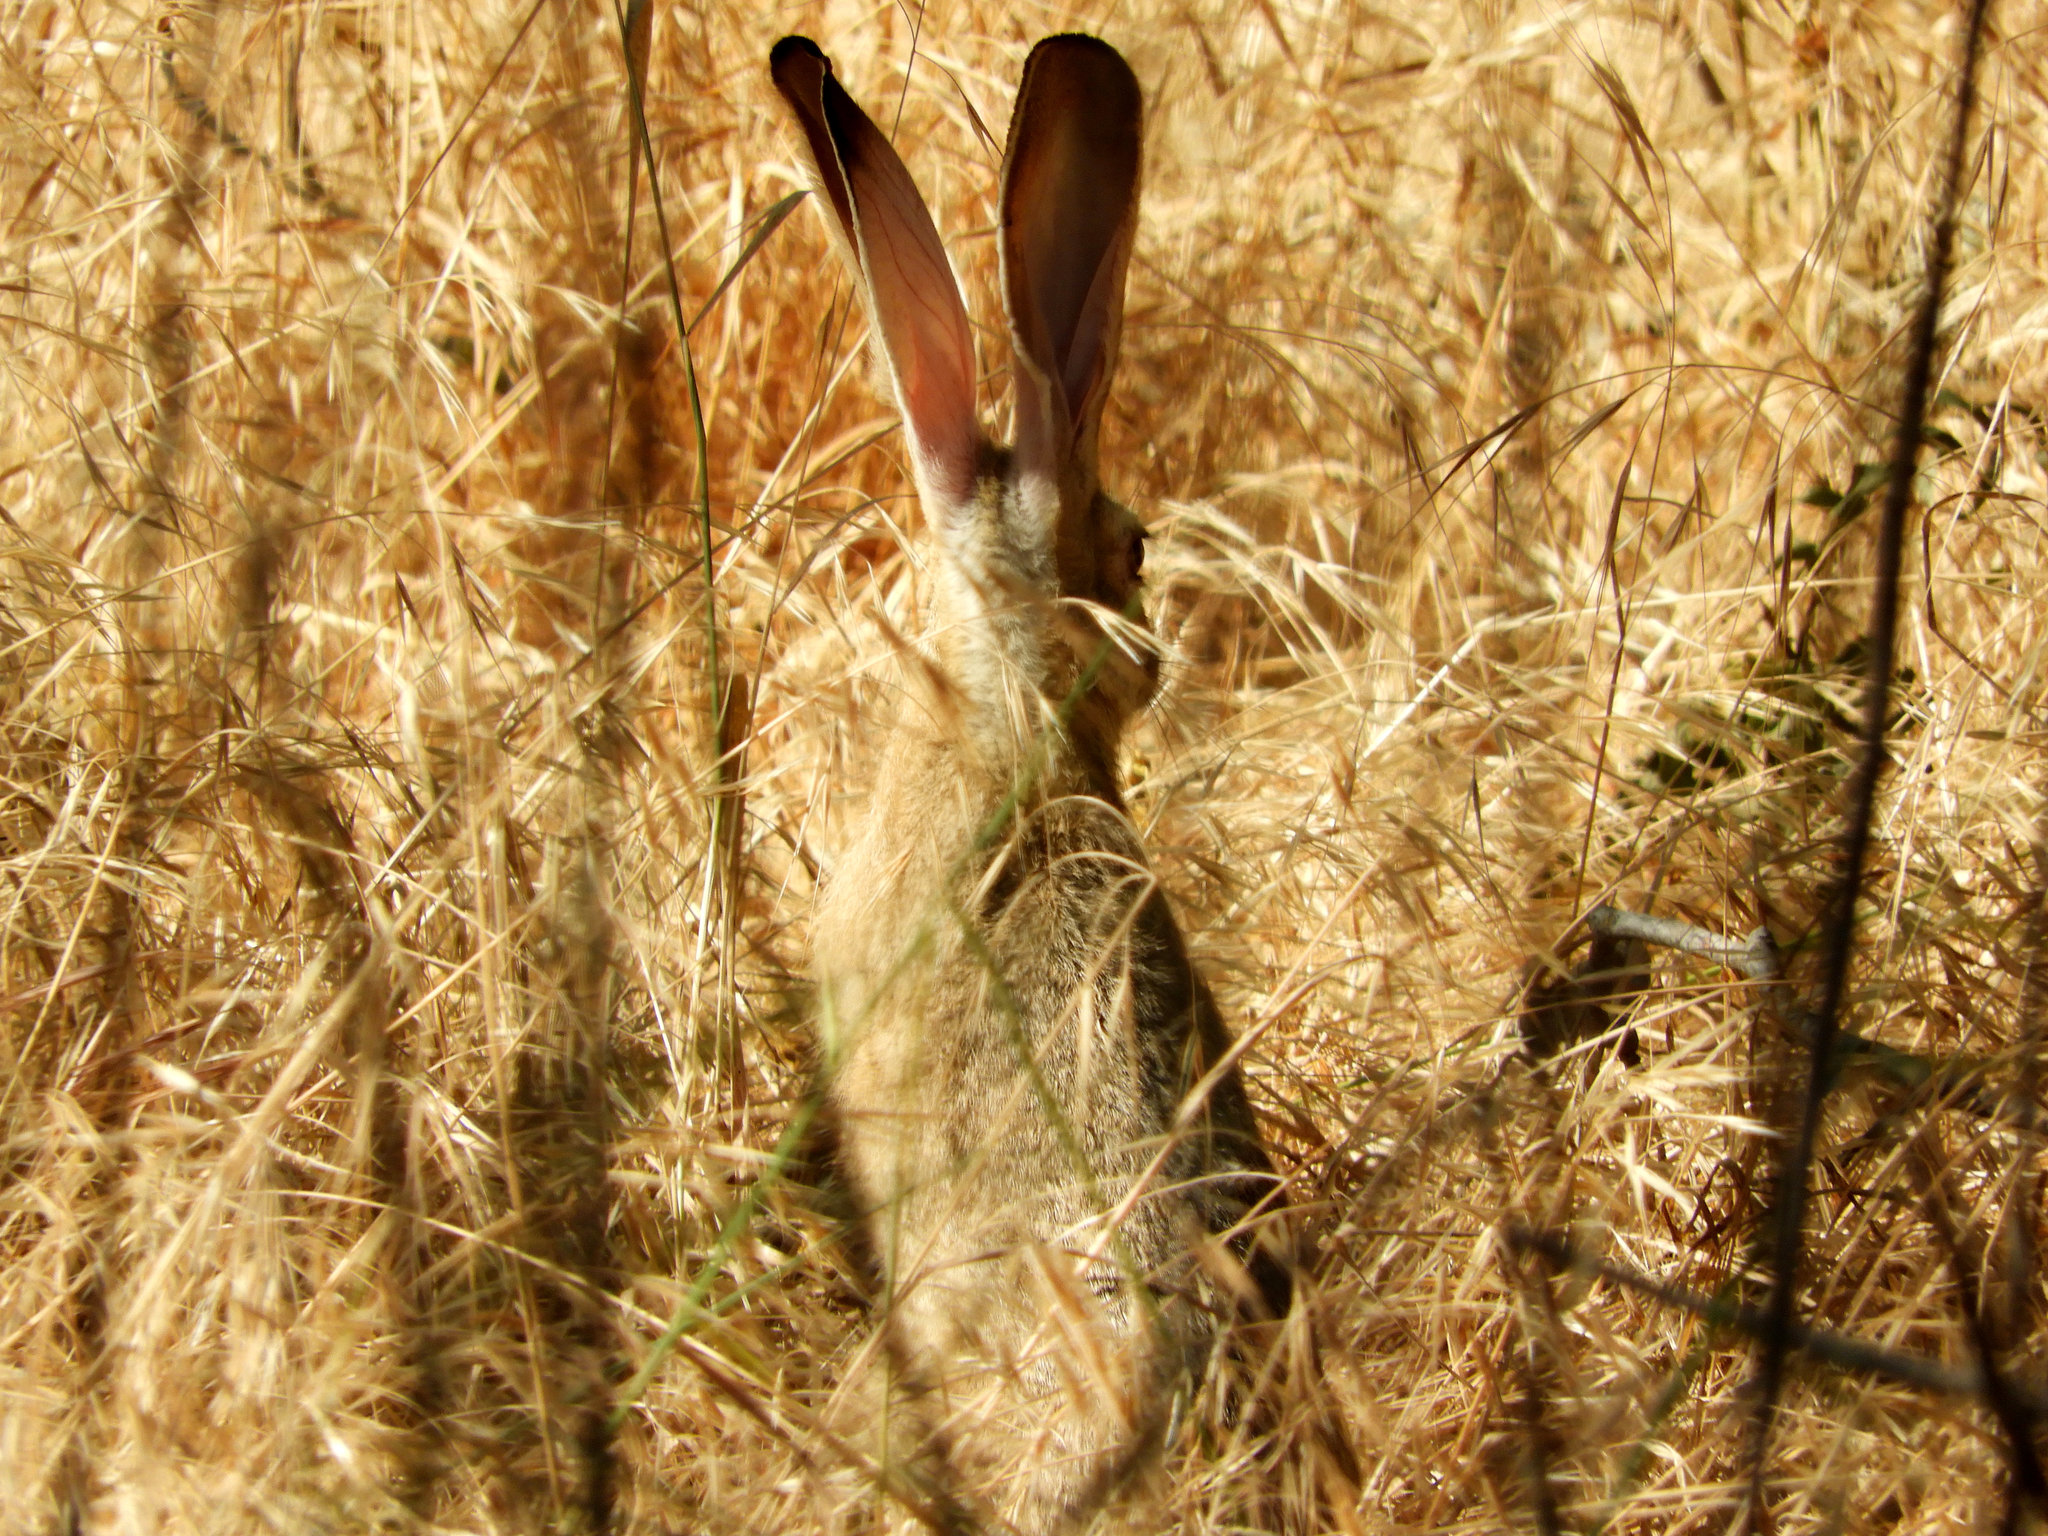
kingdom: Animalia
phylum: Chordata
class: Mammalia
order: Lagomorpha
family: Leporidae
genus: Lepus
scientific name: Lepus californicus
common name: Black-tailed jackrabbit
